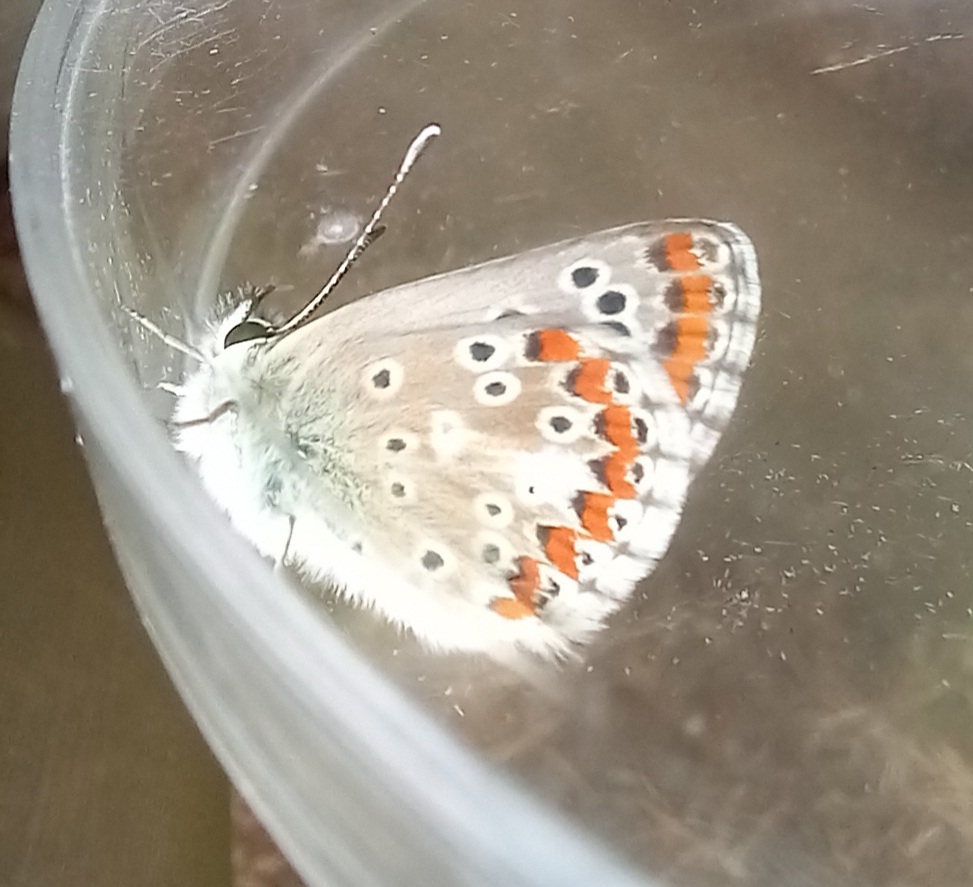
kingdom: Animalia
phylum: Arthropoda
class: Insecta
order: Lepidoptera
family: Lycaenidae
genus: Aricia
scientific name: Aricia cramera
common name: Eschscholtz´s brown  argus
